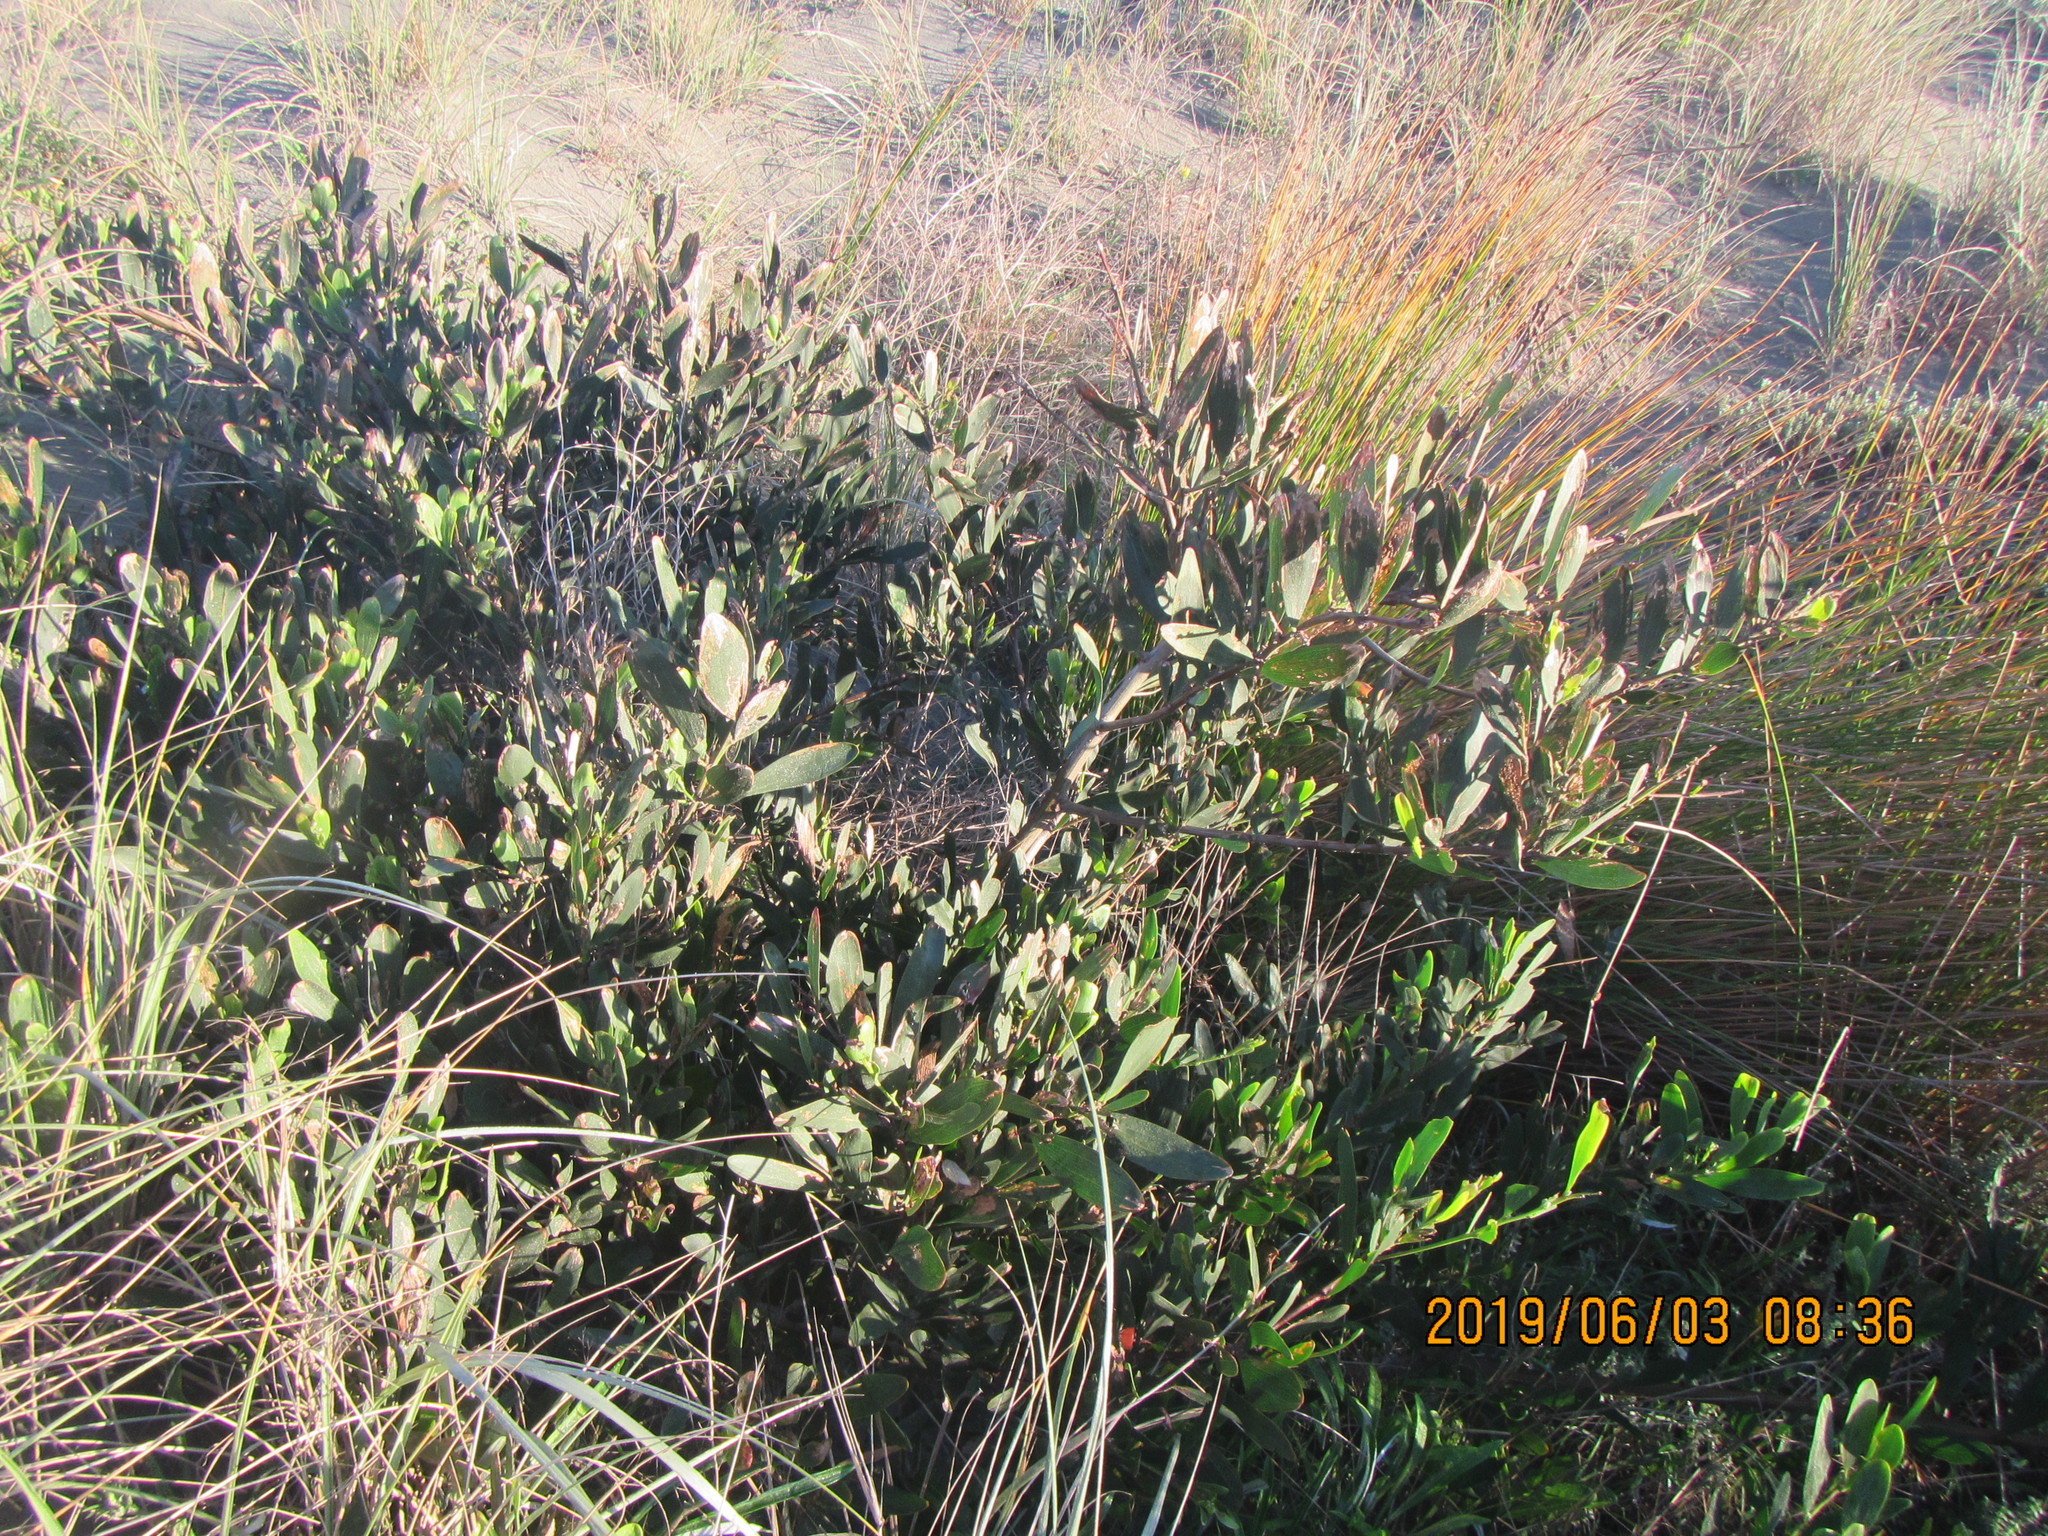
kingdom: Plantae
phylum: Tracheophyta
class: Magnoliopsida
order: Fabales
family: Fabaceae
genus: Acacia
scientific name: Acacia longifolia
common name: Sydney golden wattle
